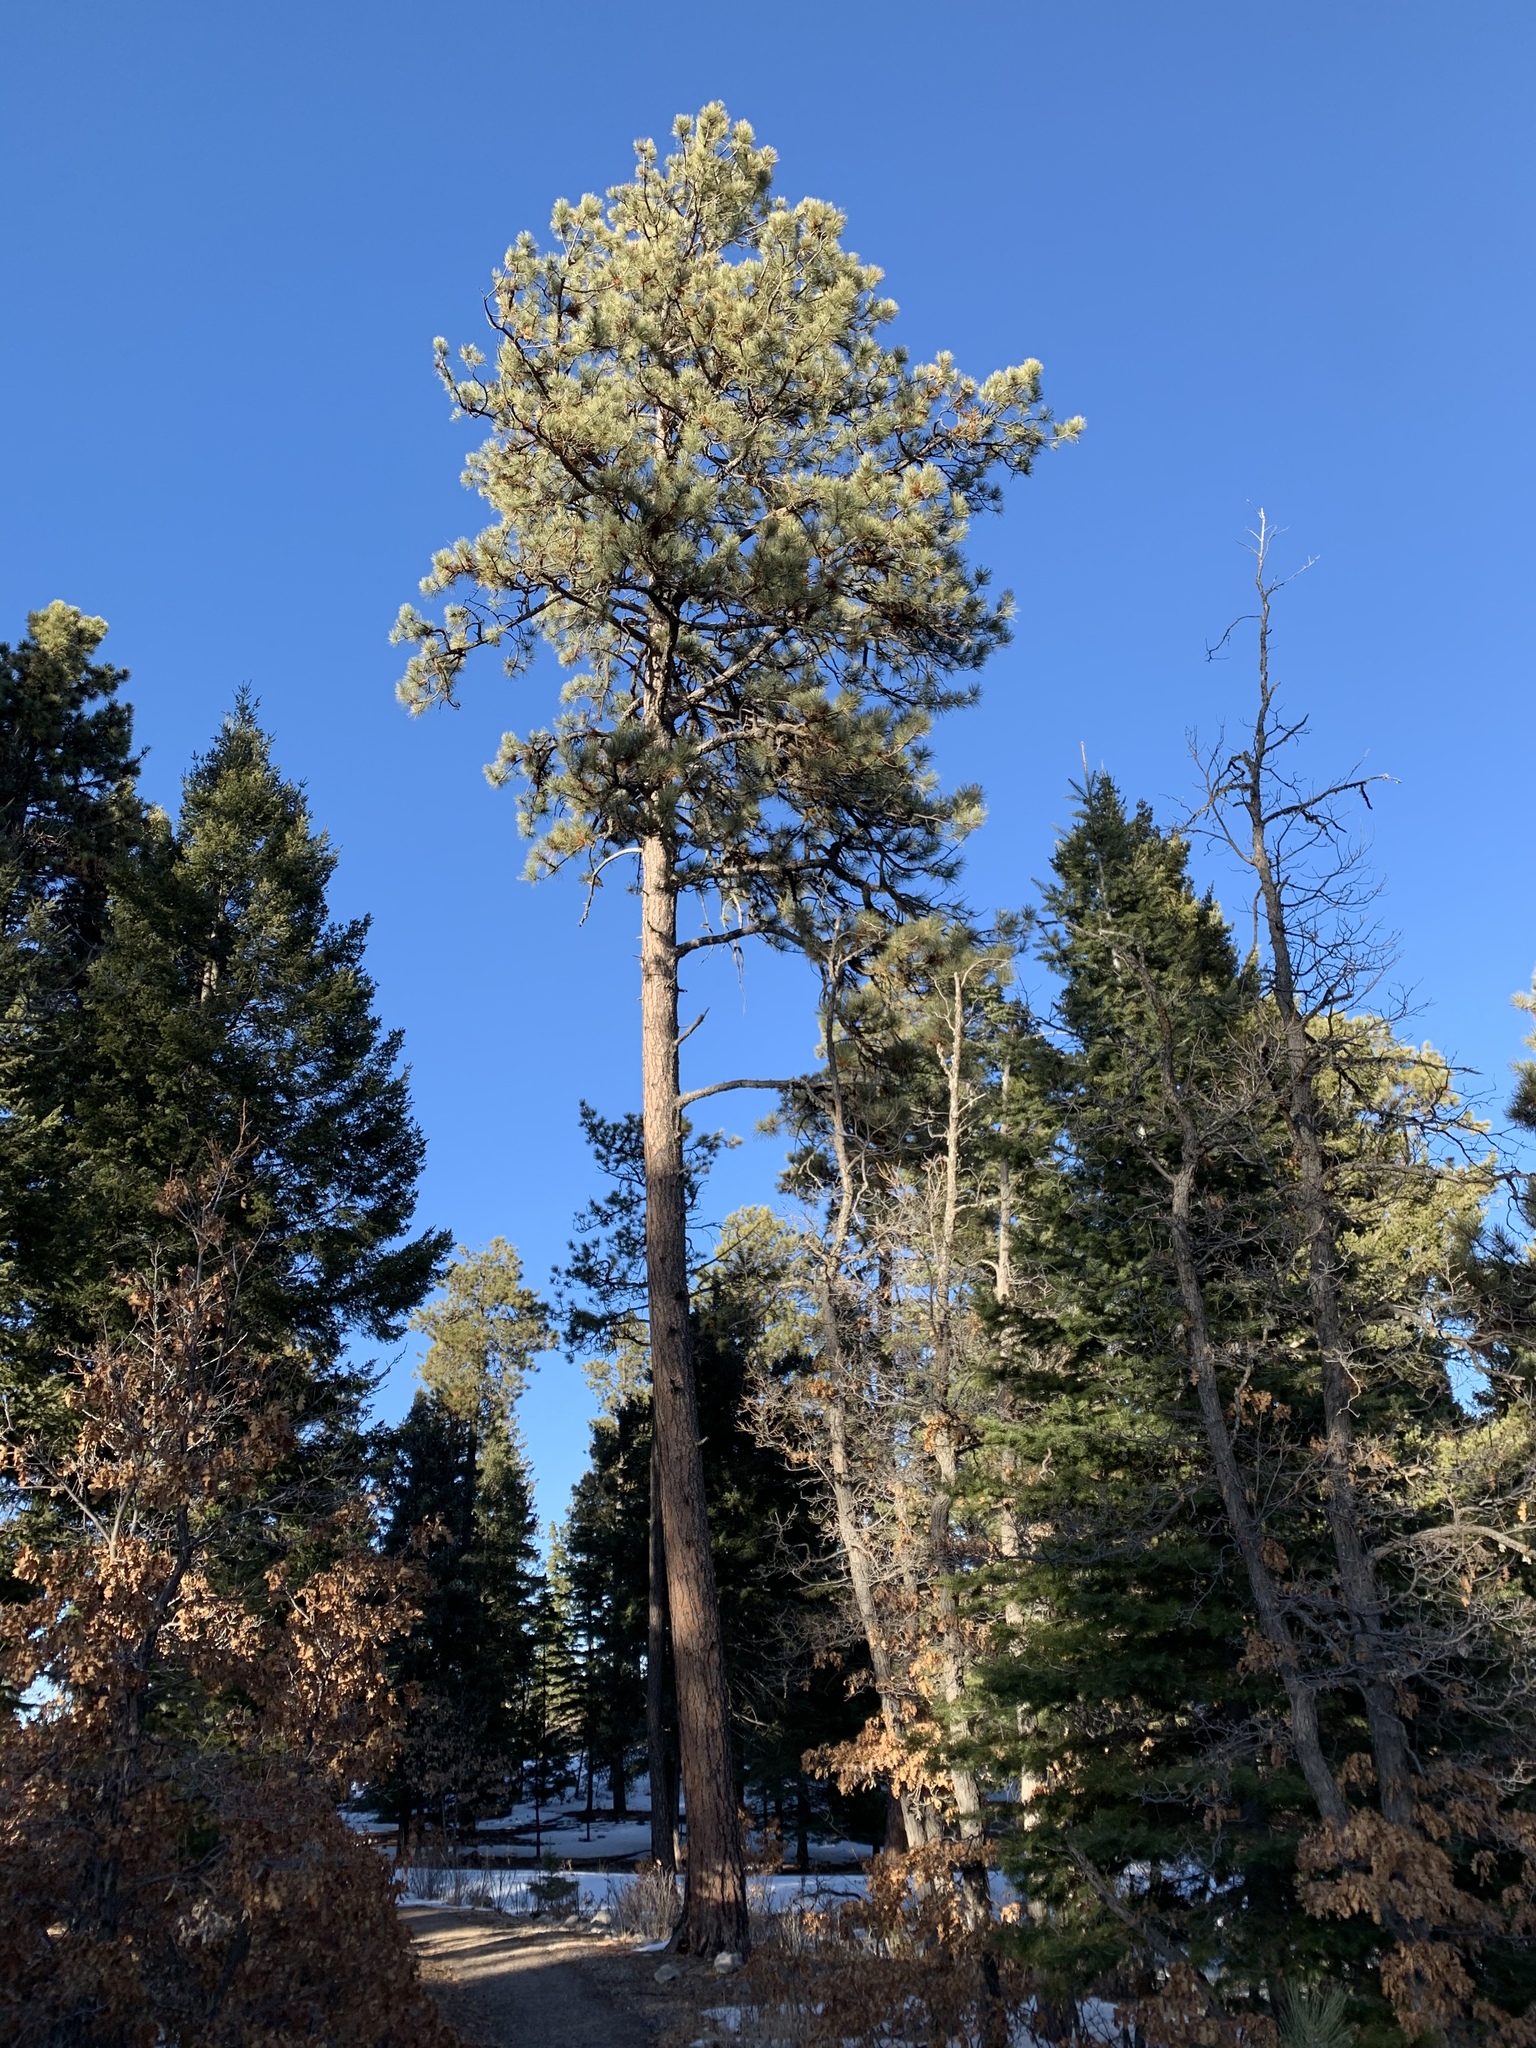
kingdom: Plantae
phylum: Tracheophyta
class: Pinopsida
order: Pinales
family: Pinaceae
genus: Pinus
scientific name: Pinus ponderosa
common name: Western yellow-pine
